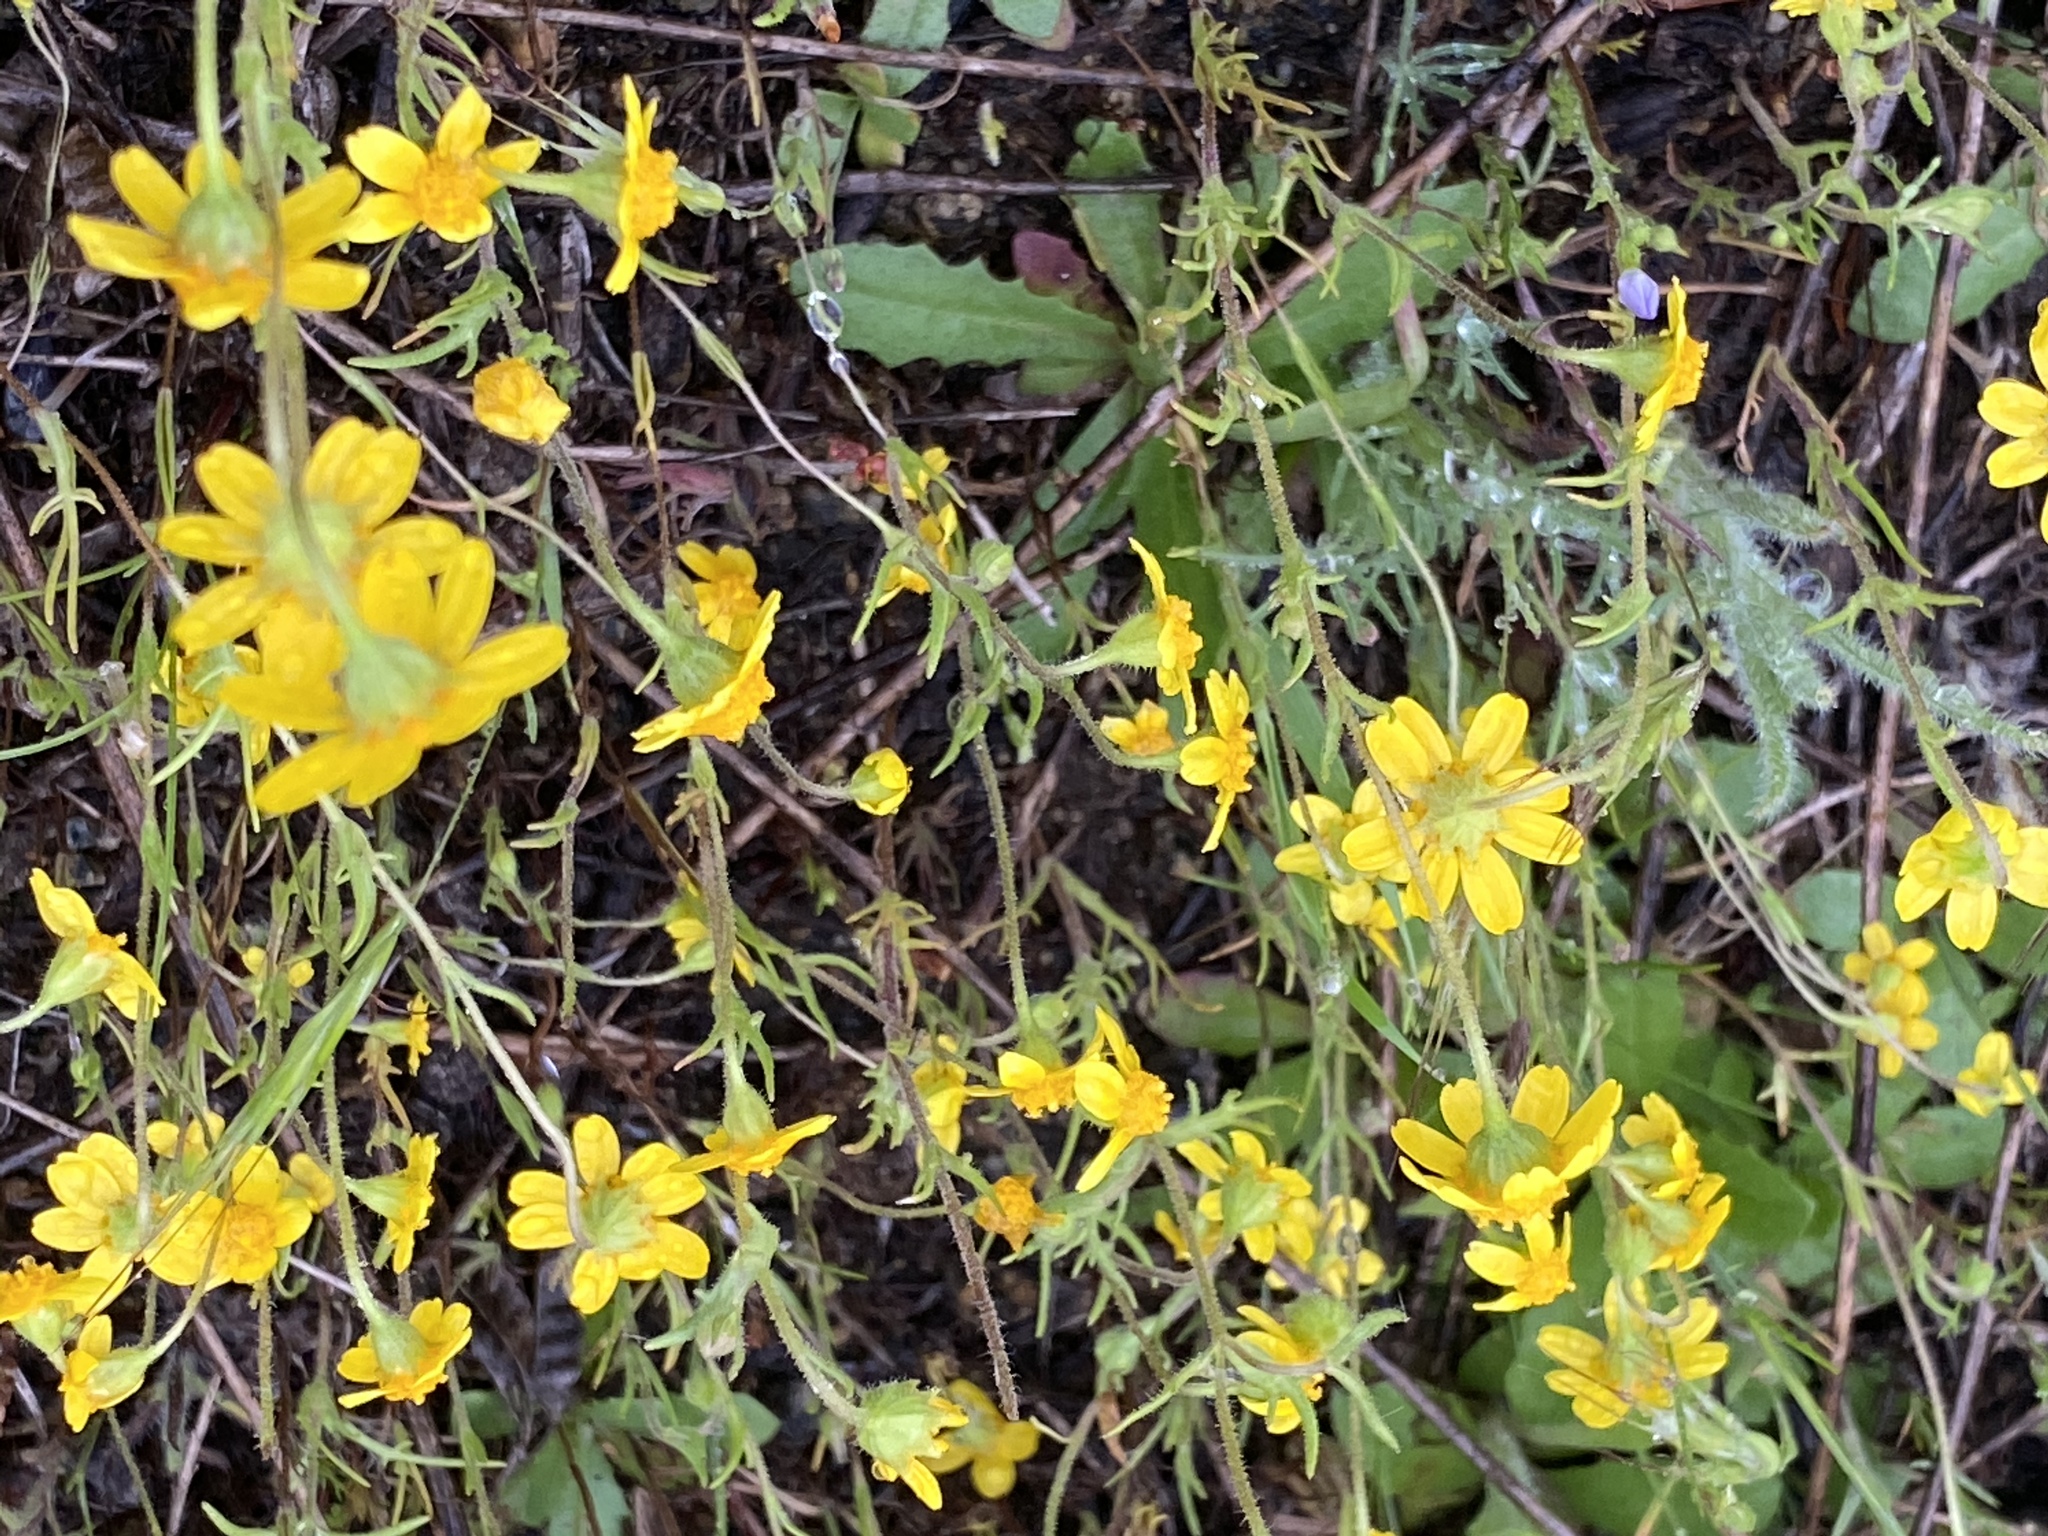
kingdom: Plantae
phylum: Tracheophyta
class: Magnoliopsida
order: Asterales
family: Asteraceae
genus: Lasthenia
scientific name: Lasthenia coronaria
